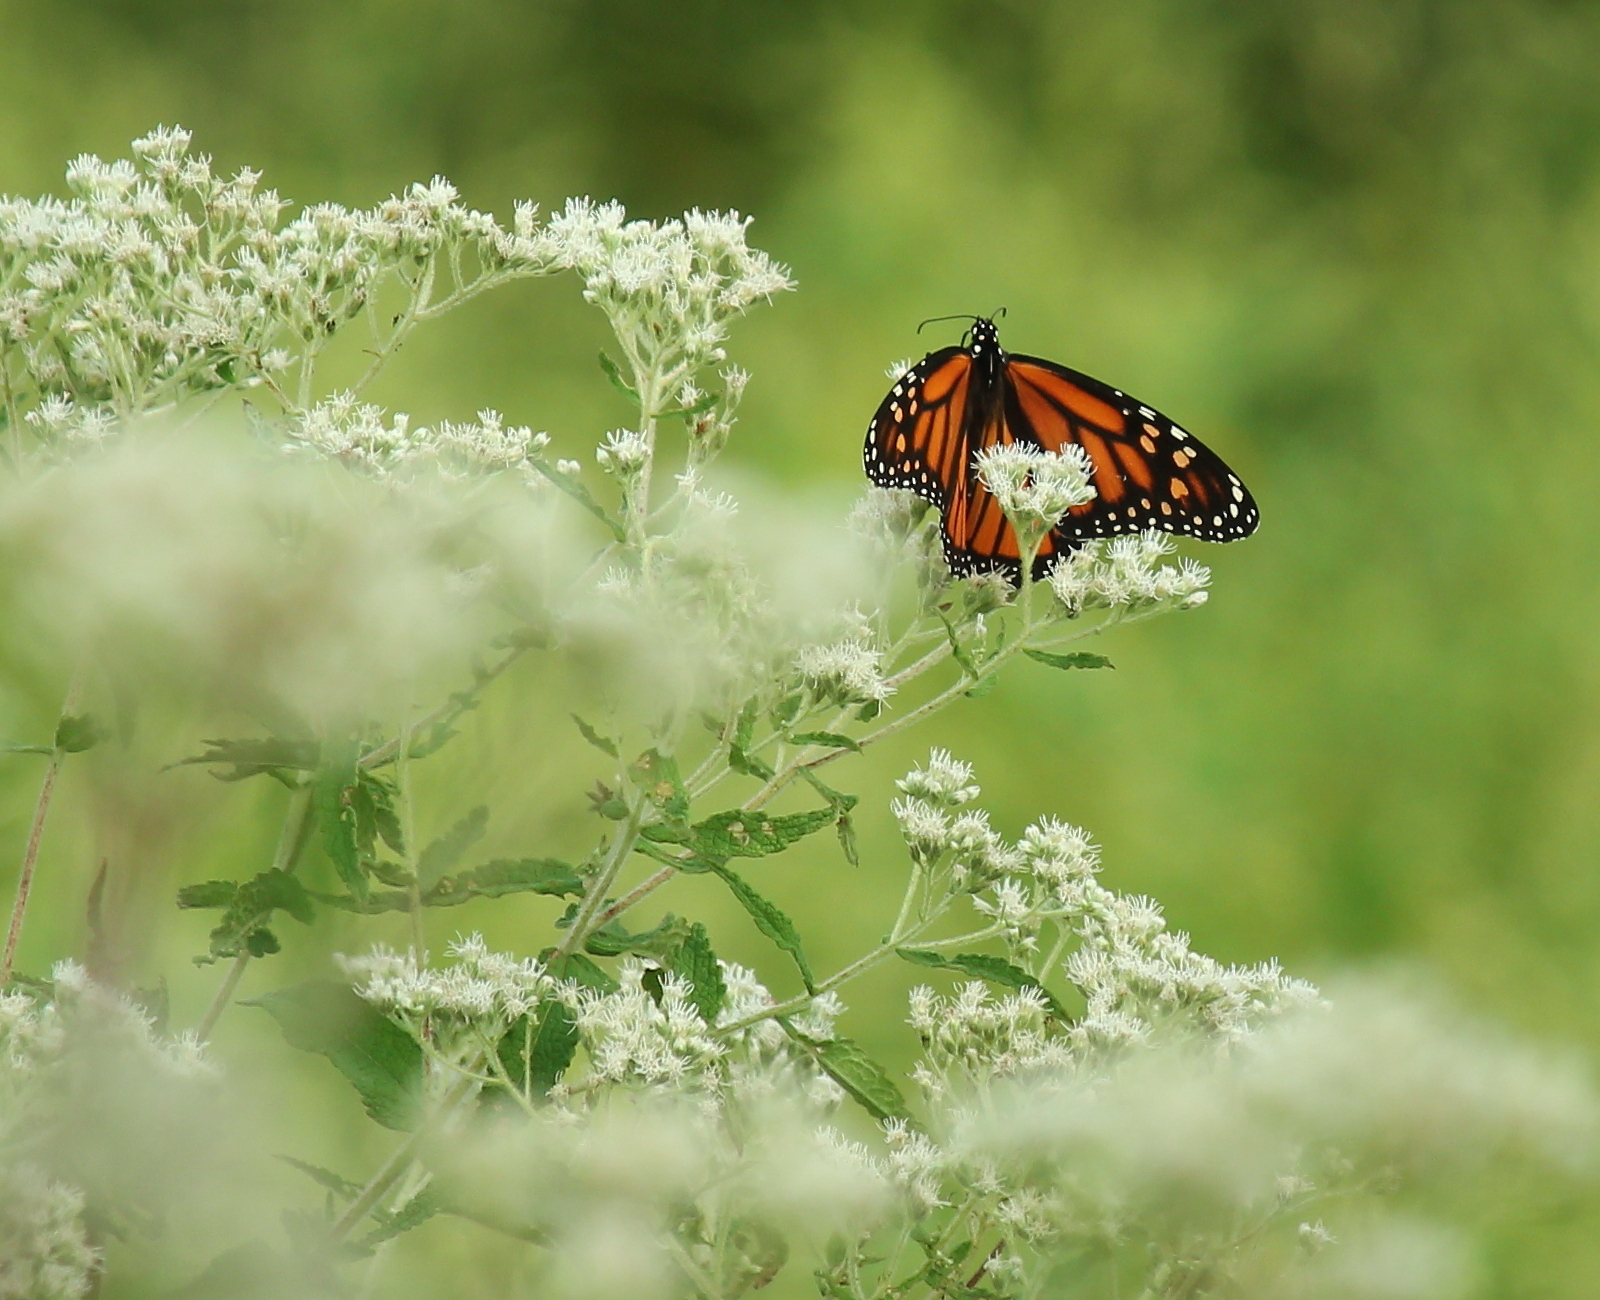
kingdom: Animalia
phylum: Arthropoda
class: Insecta
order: Lepidoptera
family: Nymphalidae
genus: Danaus
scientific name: Danaus plexippus
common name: Monarch
